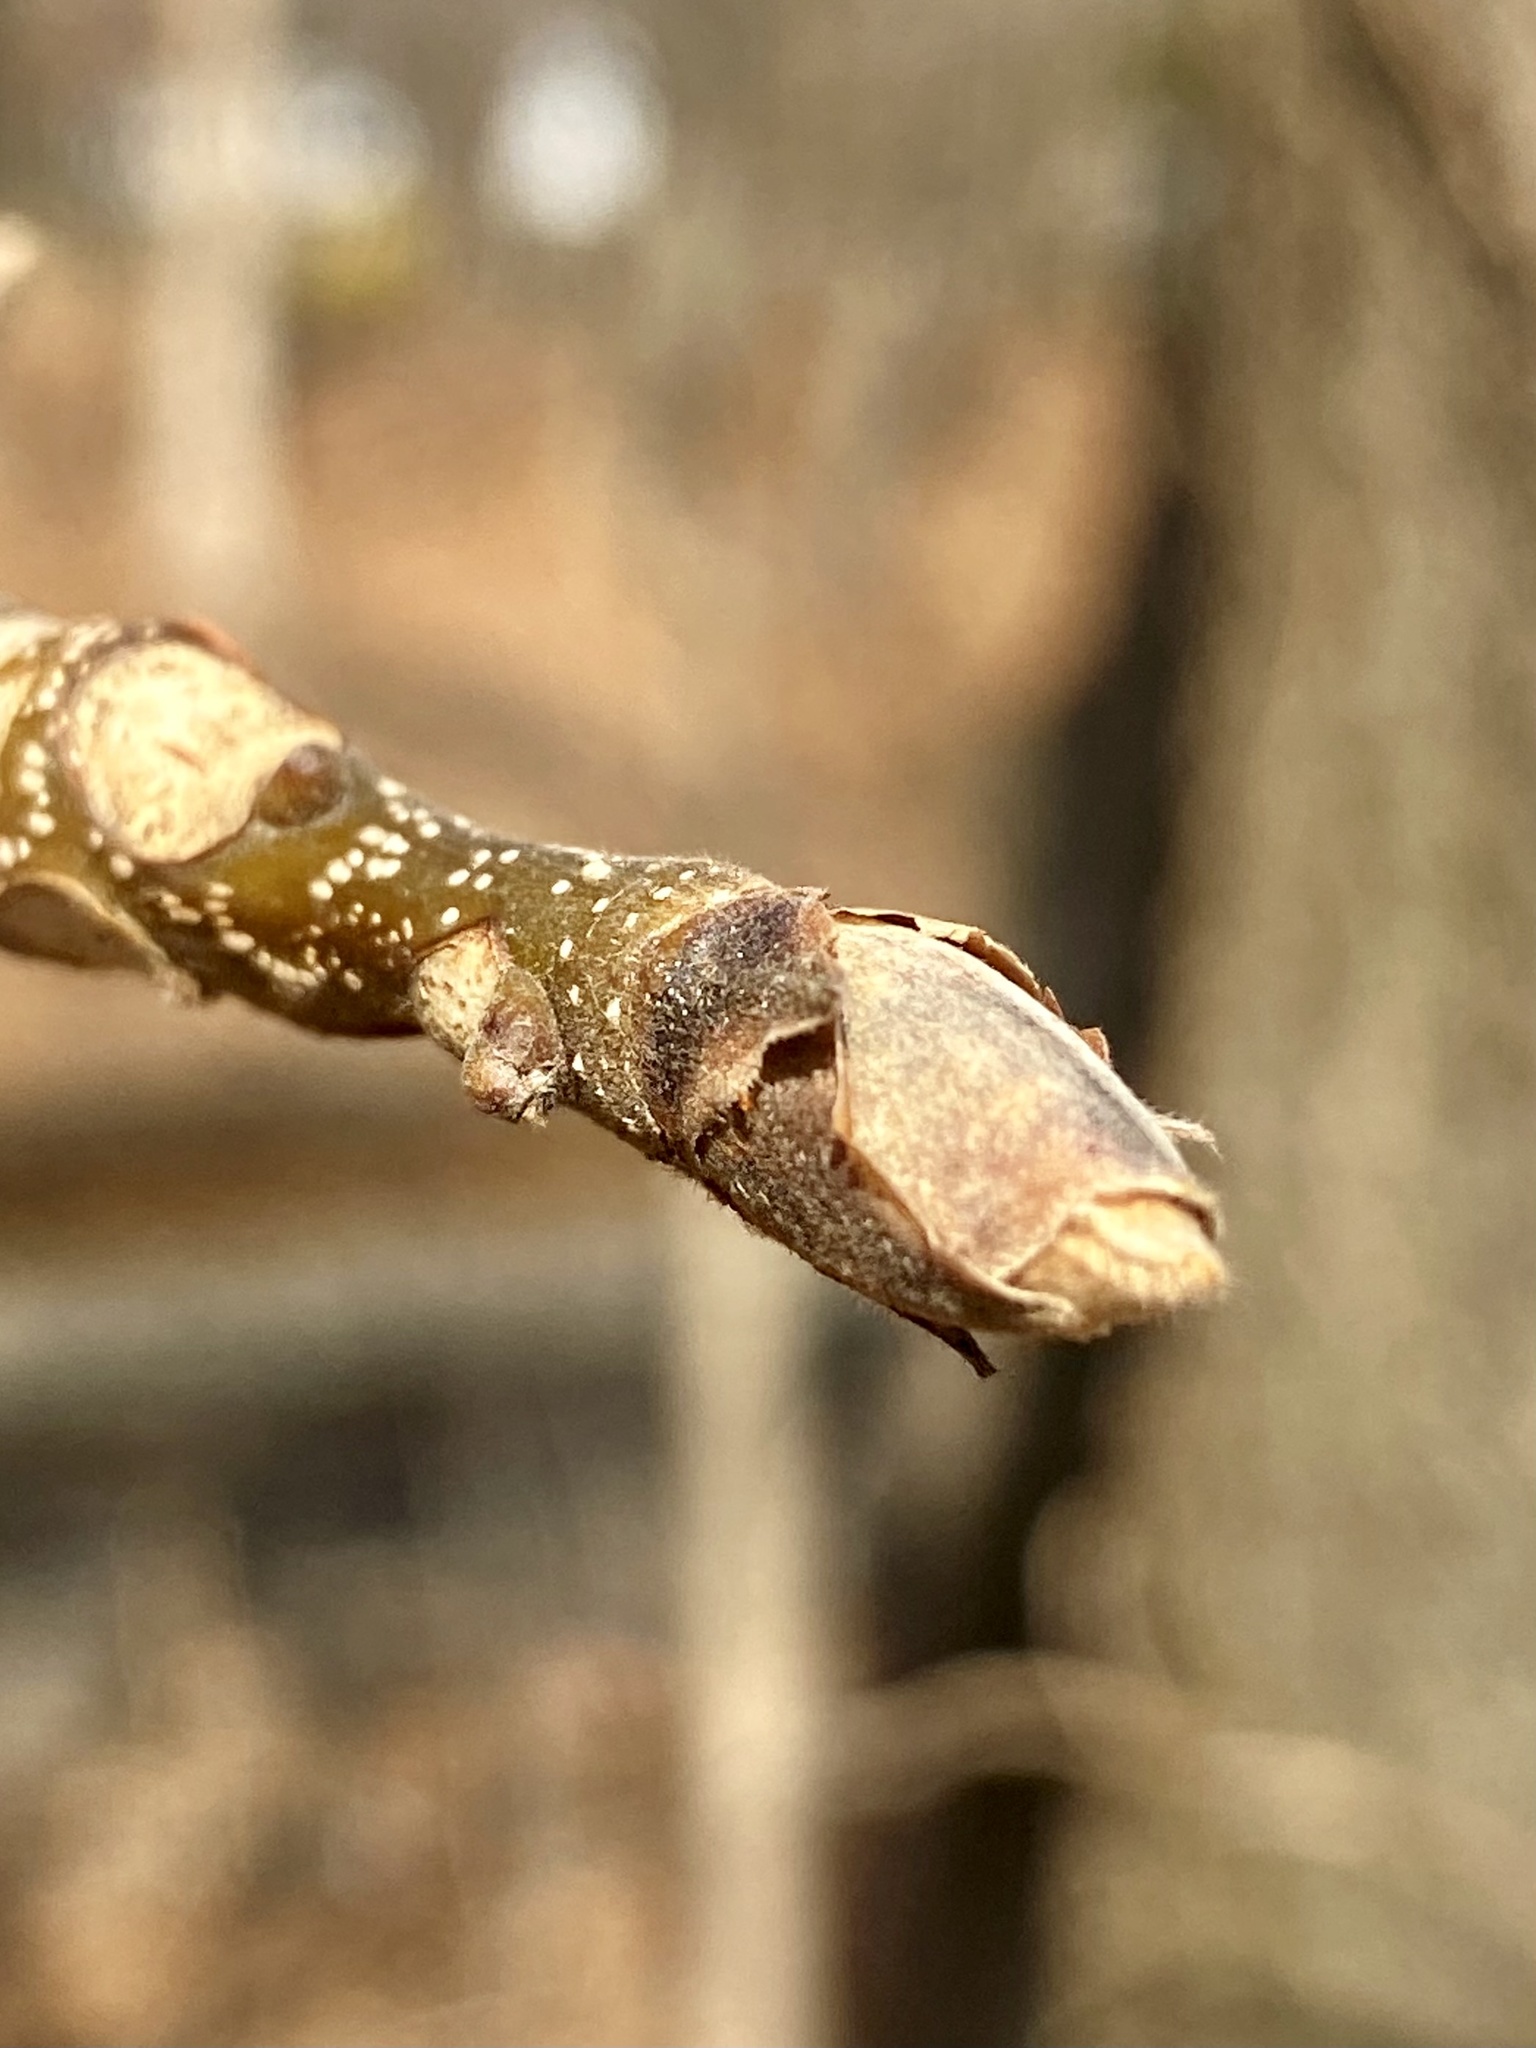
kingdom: Plantae
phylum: Tracheophyta
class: Magnoliopsida
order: Fagales
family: Juglandaceae
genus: Carya
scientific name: Carya ovata
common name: Shagbark hickory
